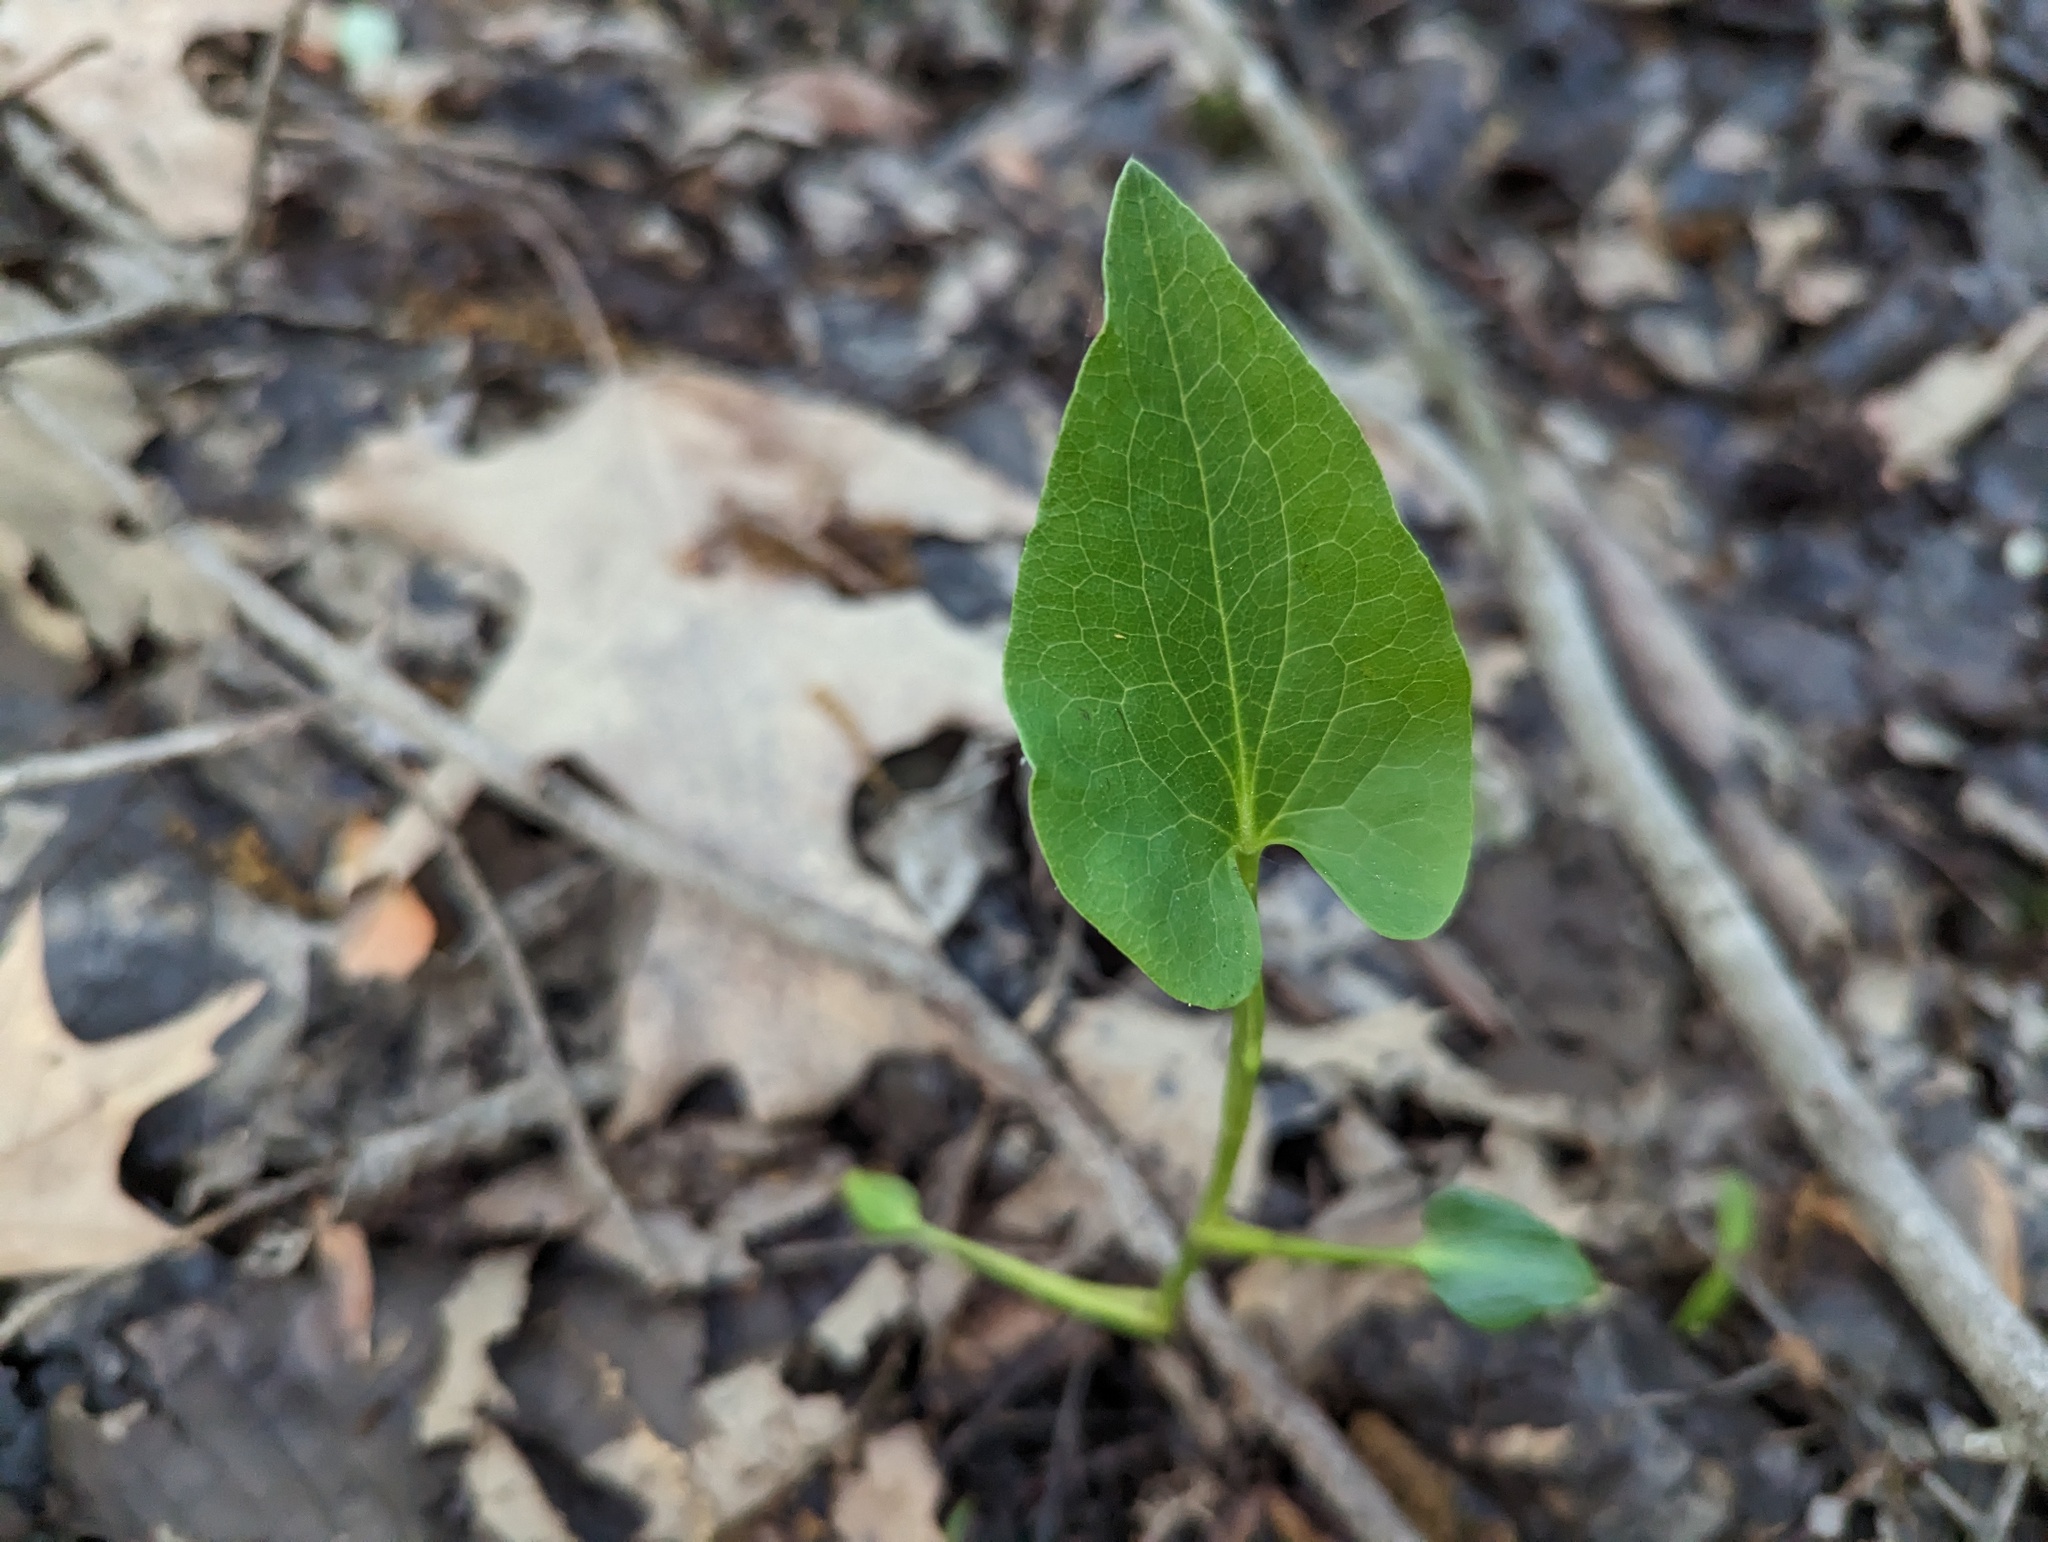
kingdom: Plantae
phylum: Tracheophyta
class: Magnoliopsida
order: Piperales
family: Saururaceae
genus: Saururus
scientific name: Saururus cernuus
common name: Lizard's-tail
